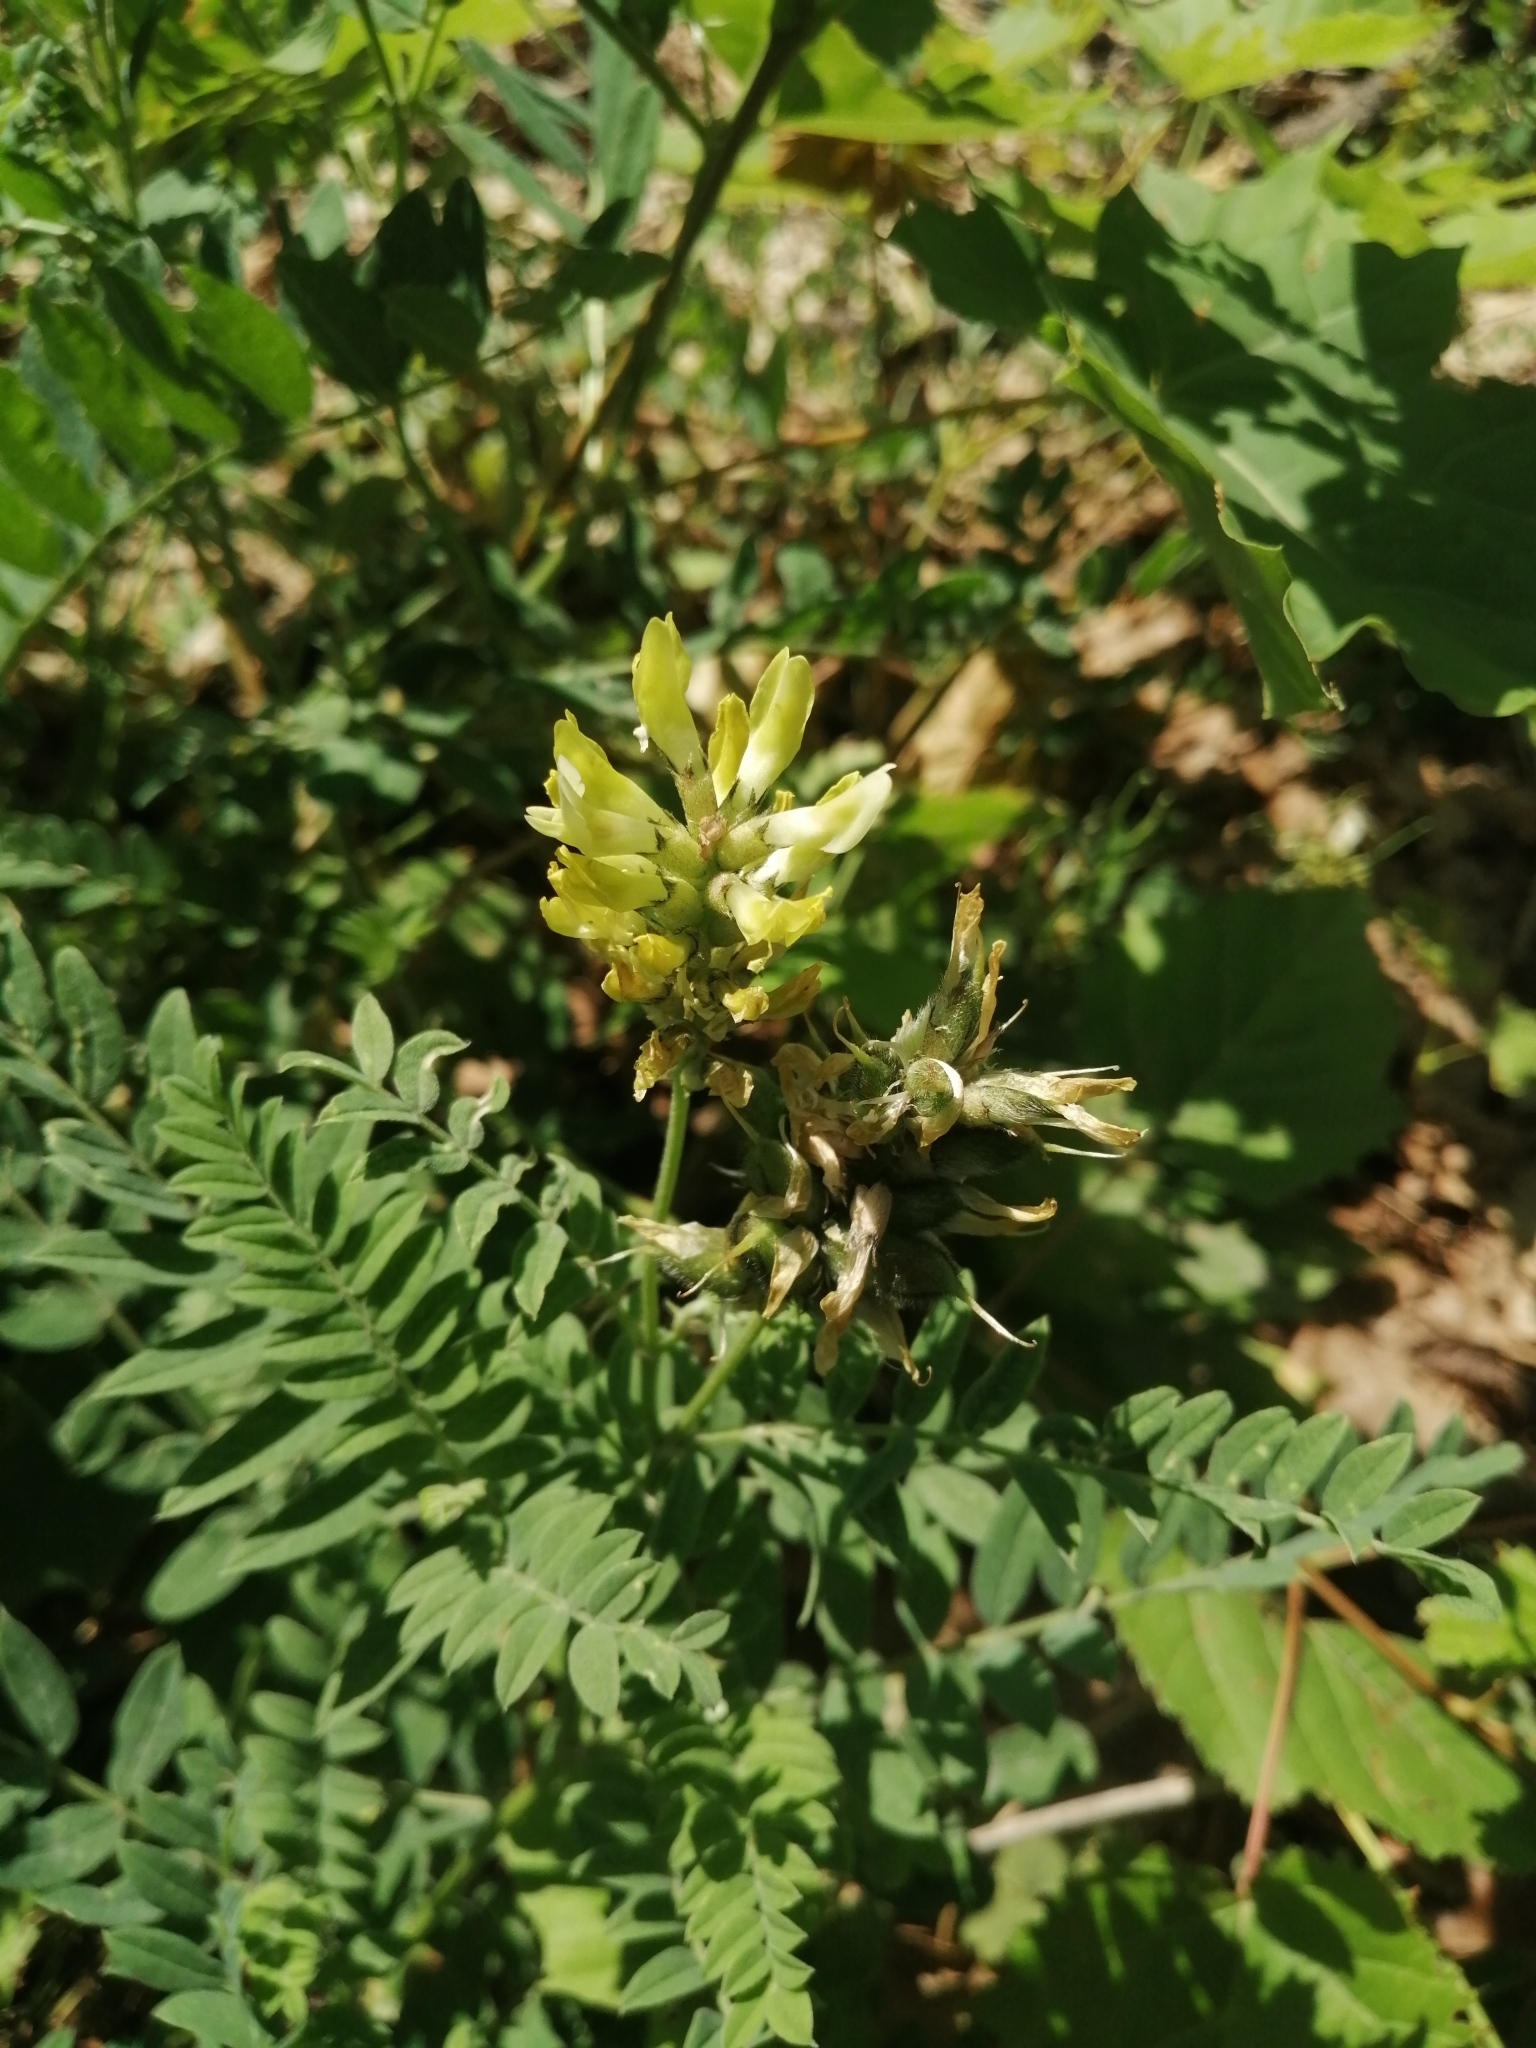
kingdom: Plantae
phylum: Tracheophyta
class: Magnoliopsida
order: Fabales
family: Fabaceae
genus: Astragalus
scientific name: Astragalus cicer
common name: Chick-pea milk-vetch
